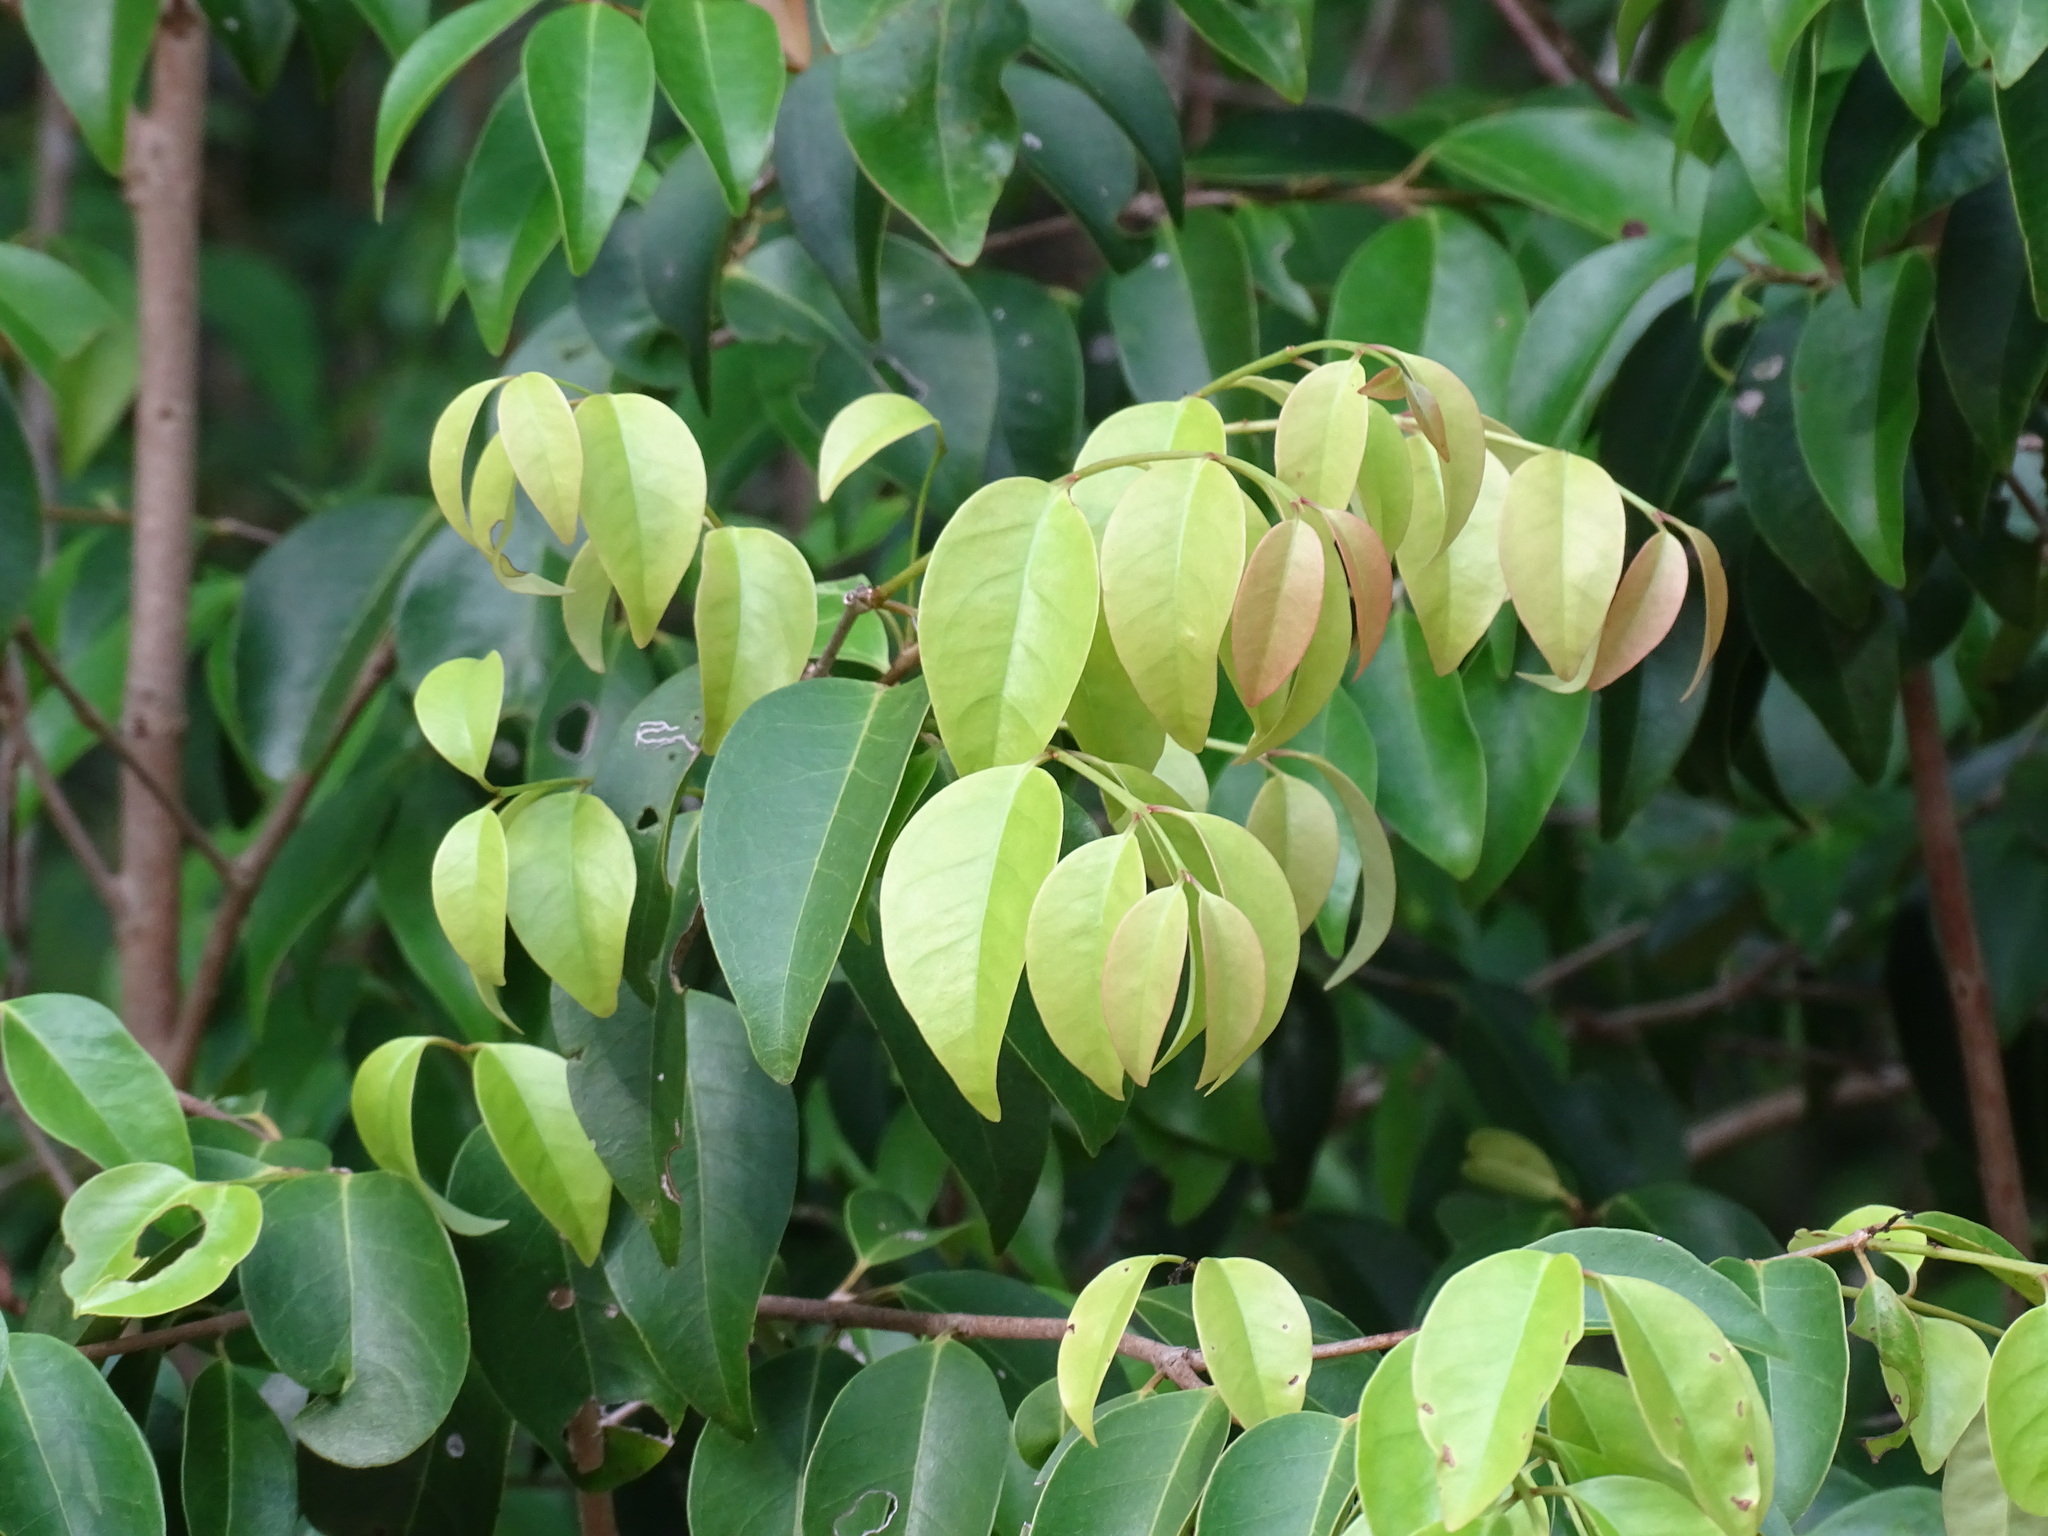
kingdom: Plantae
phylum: Tracheophyta
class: Magnoliopsida
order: Myrtales
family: Myrtaceae
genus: Myrcia
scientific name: Myrcia millspaughii
